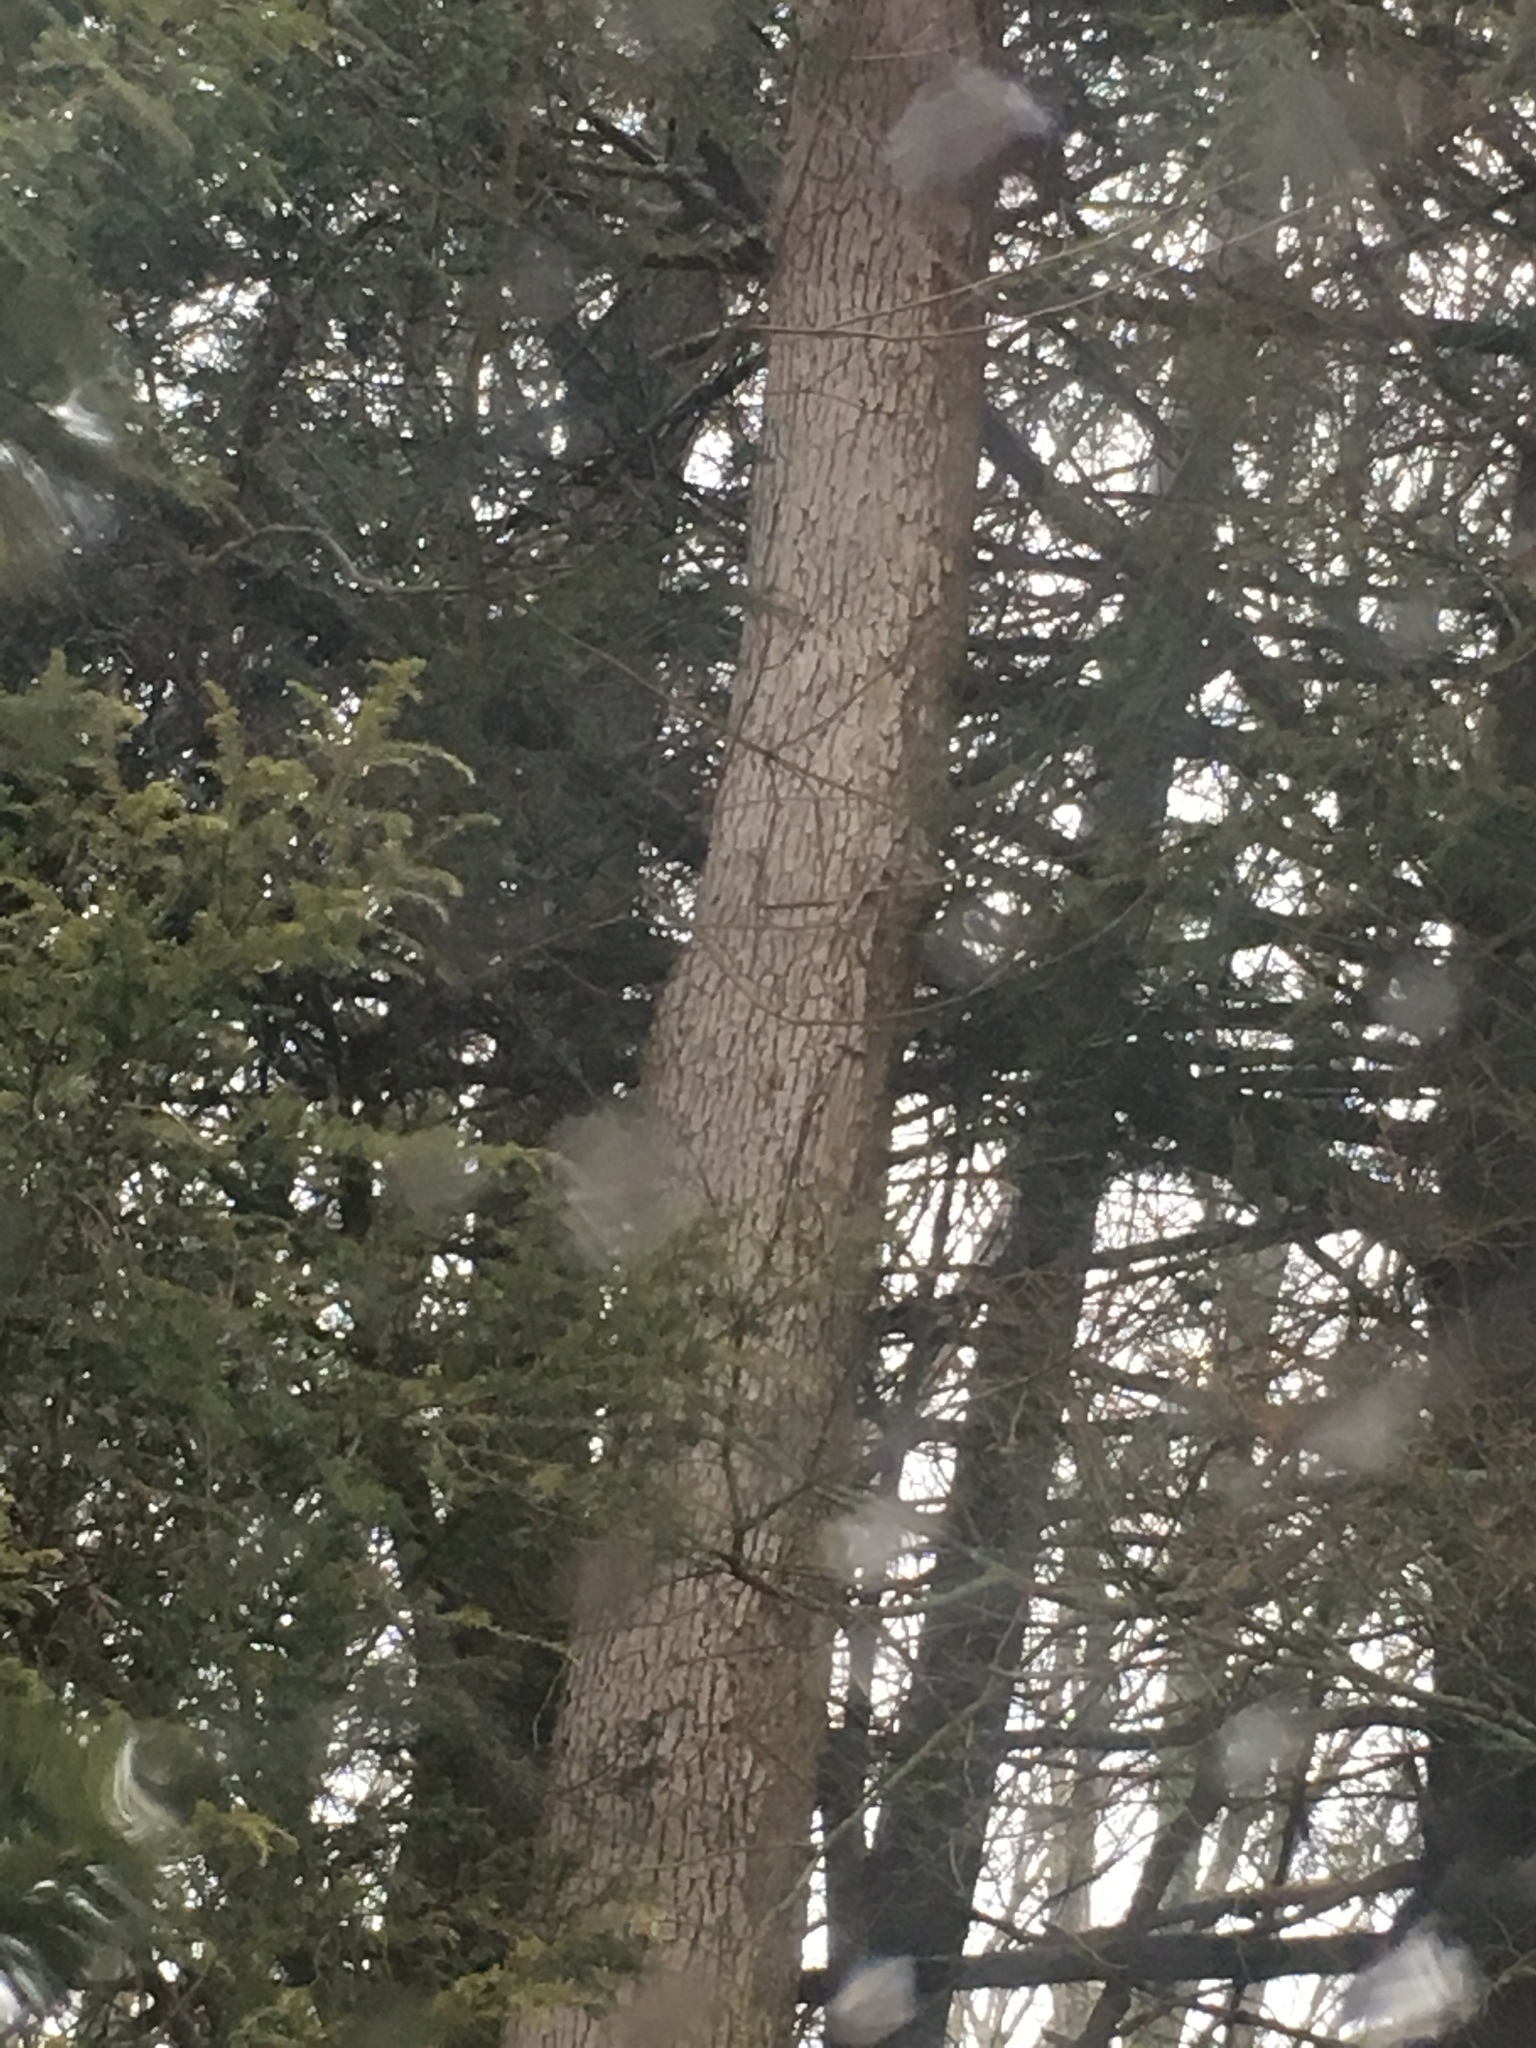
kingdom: Plantae
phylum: Tracheophyta
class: Magnoliopsida
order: Fagales
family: Fagaceae
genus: Quercus
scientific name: Quercus alba
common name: White oak
